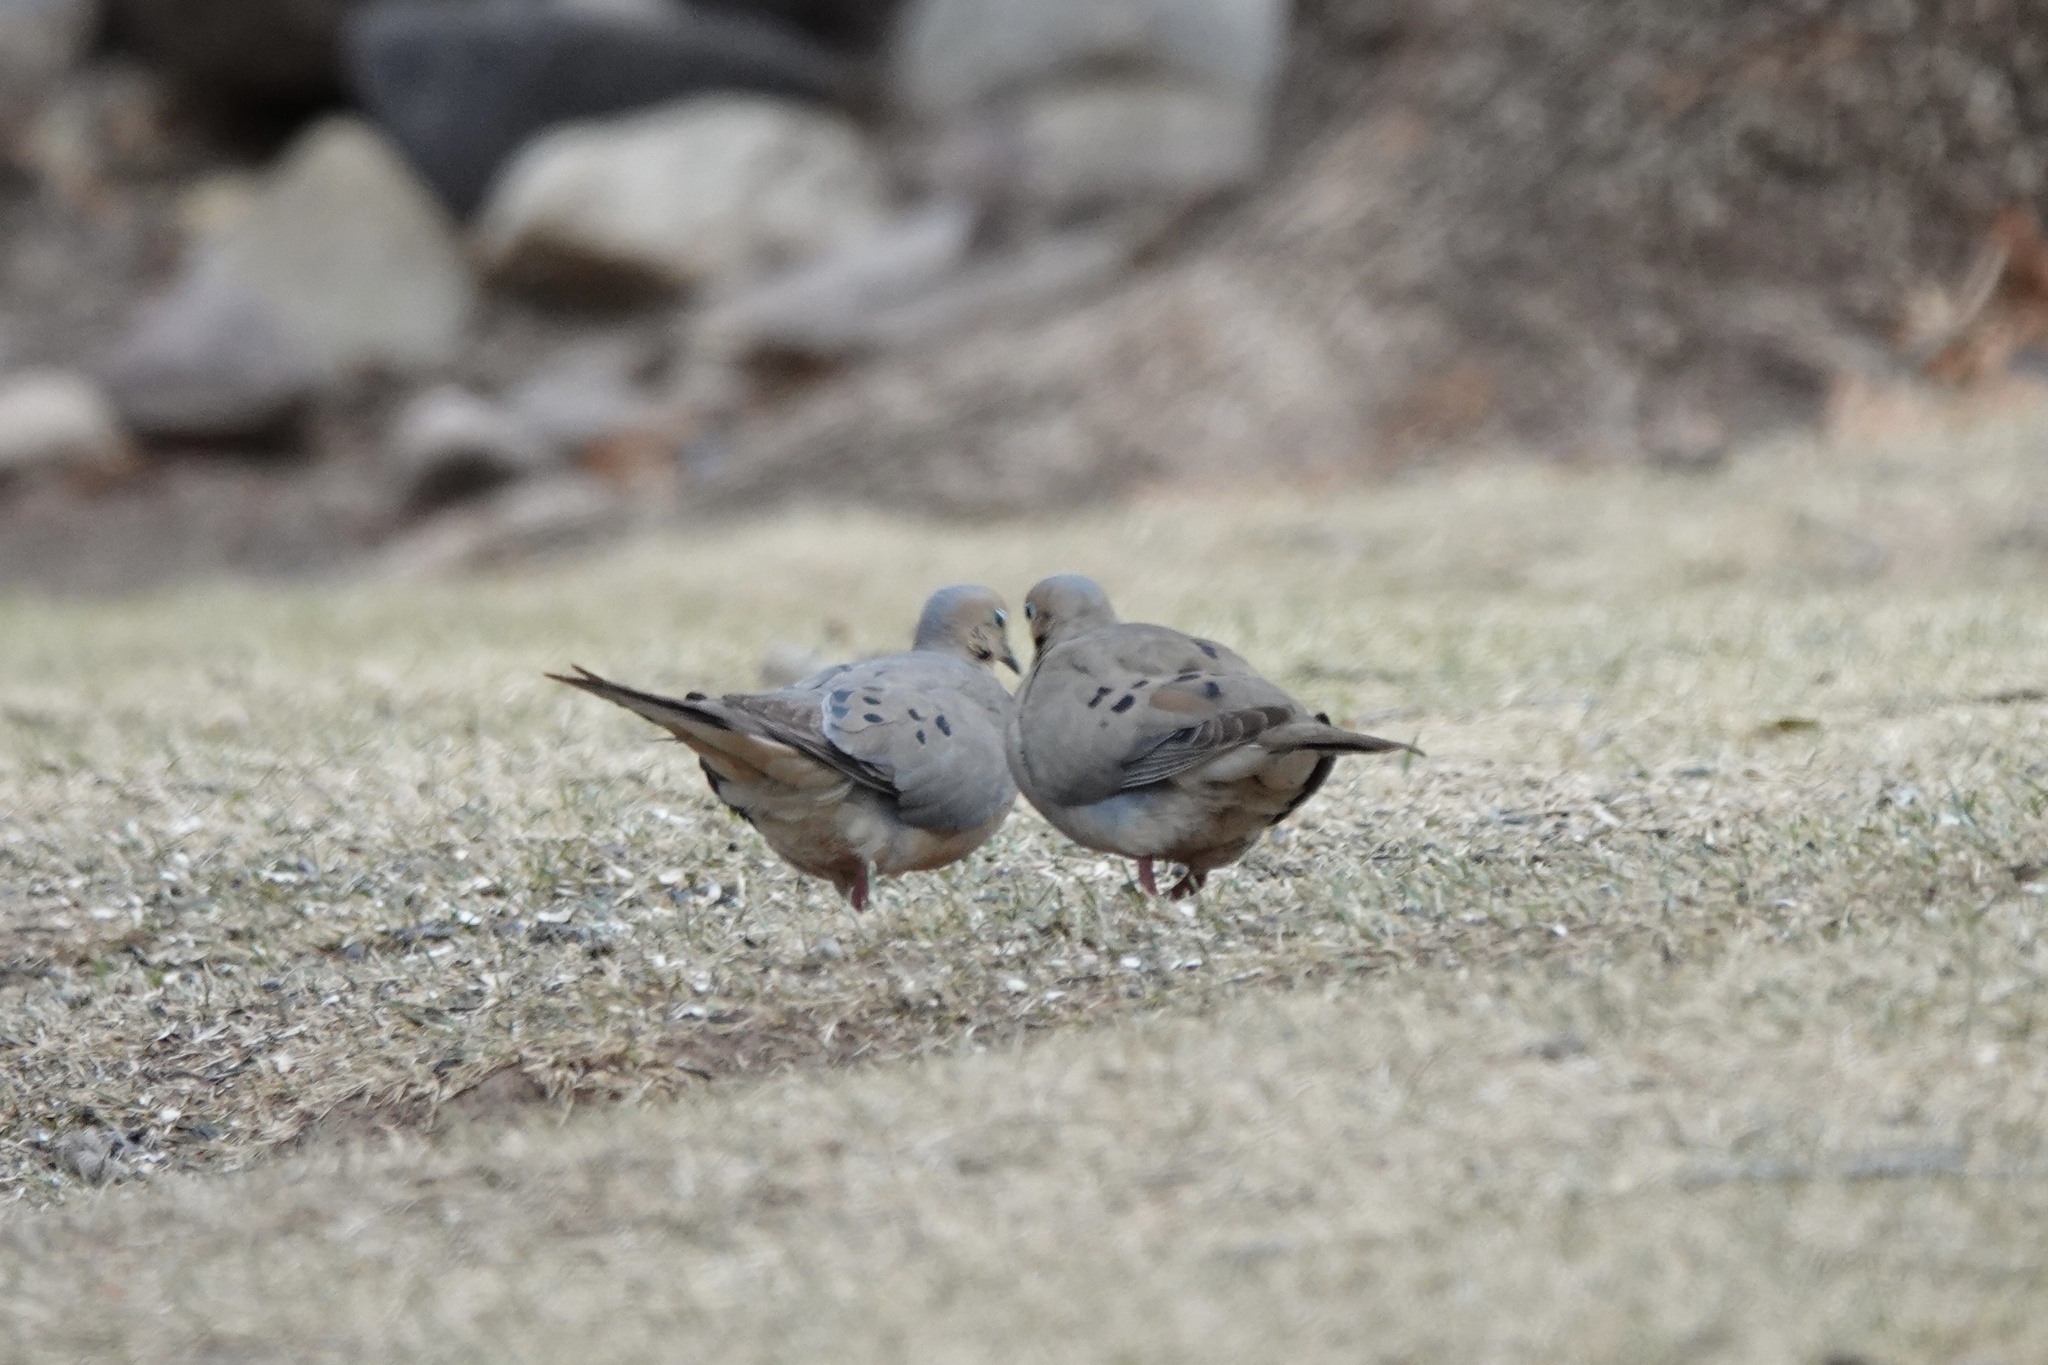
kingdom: Animalia
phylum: Chordata
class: Aves
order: Columbiformes
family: Columbidae
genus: Zenaida
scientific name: Zenaida macroura
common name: Mourning dove
